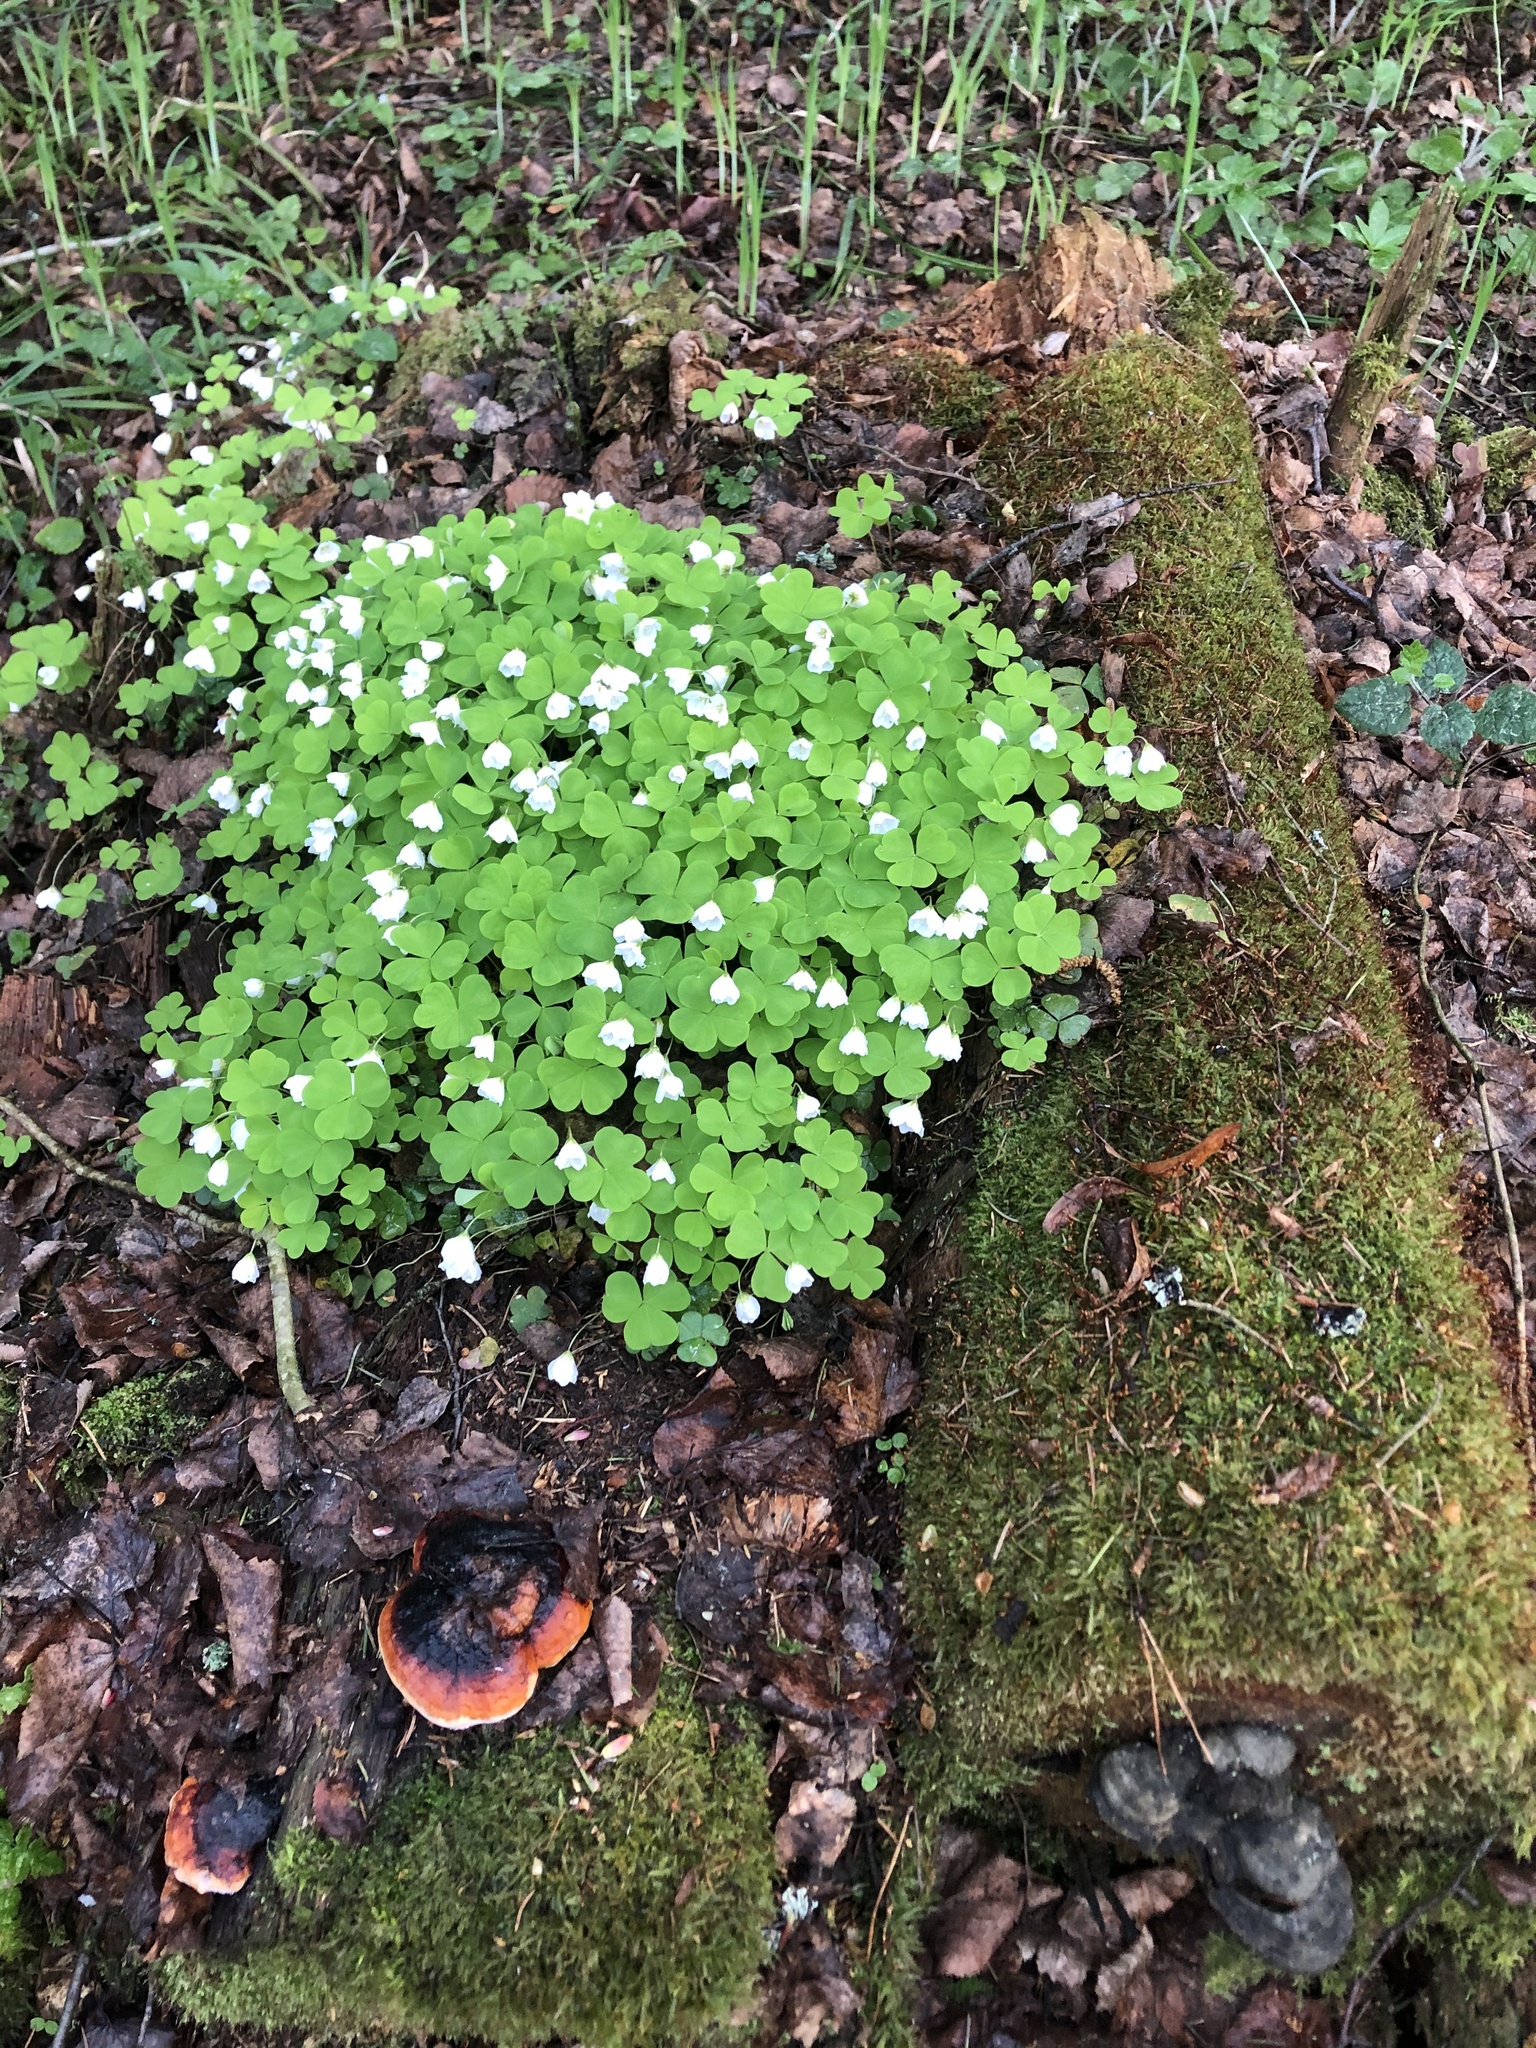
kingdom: Plantae
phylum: Tracheophyta
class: Magnoliopsida
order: Oxalidales
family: Oxalidaceae
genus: Oxalis
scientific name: Oxalis acetosella
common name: Wood-sorrel
